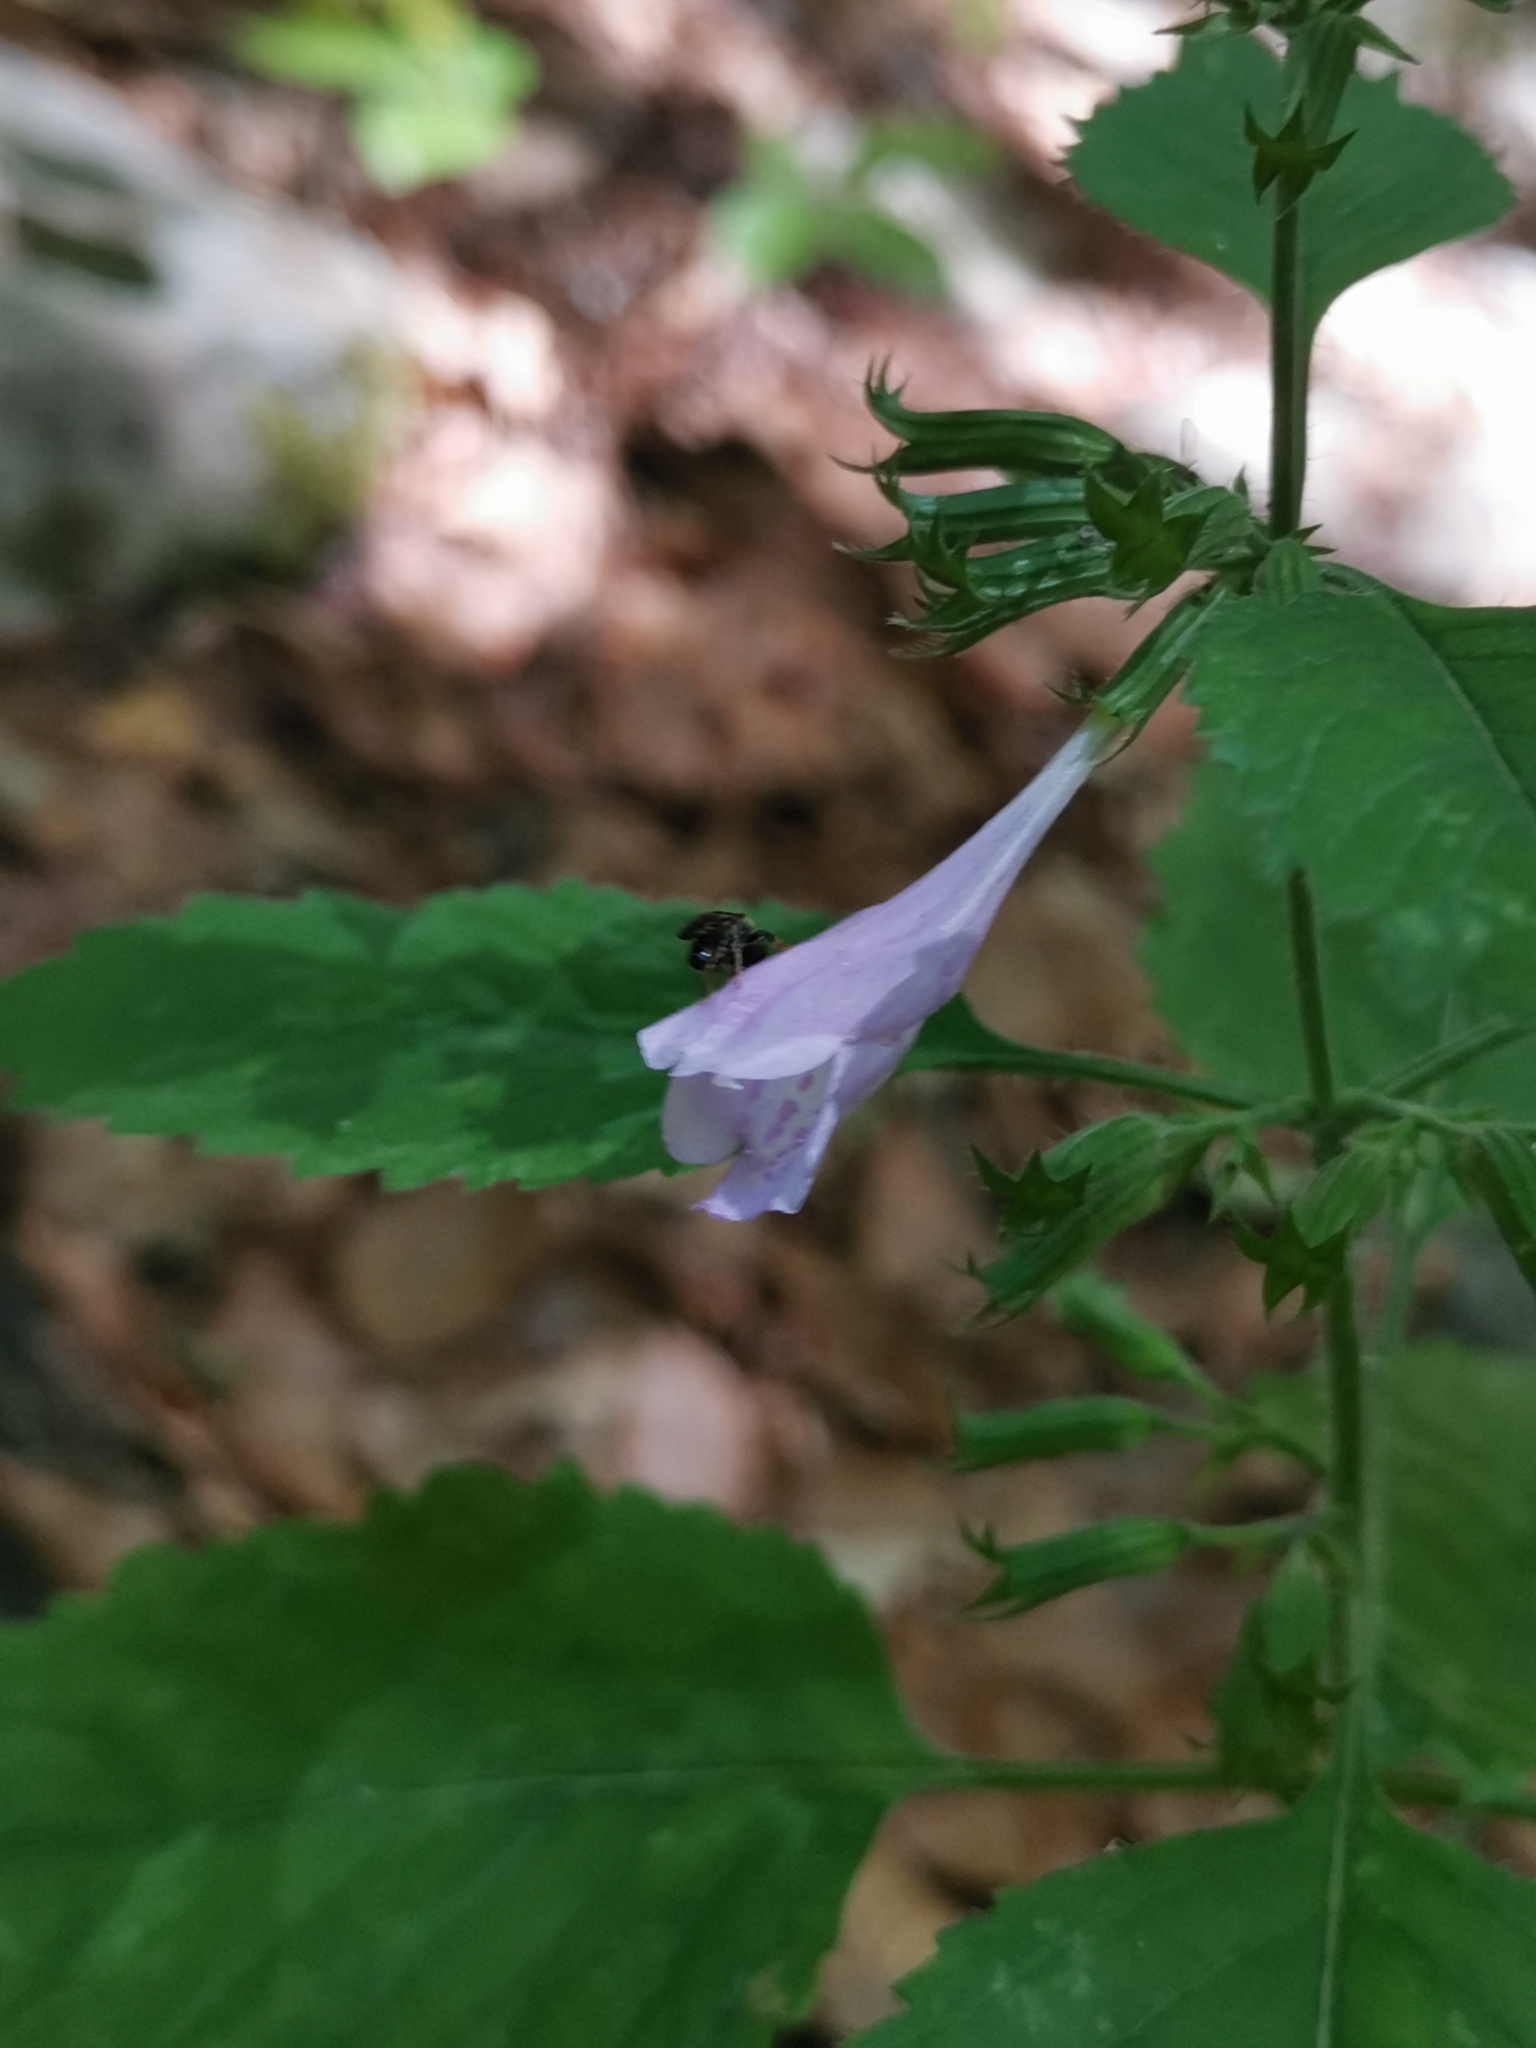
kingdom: Plantae
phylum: Tracheophyta
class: Magnoliopsida
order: Lamiales
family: Lamiaceae
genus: Clinopodium
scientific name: Clinopodium grandiflorum
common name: Greater calamint
